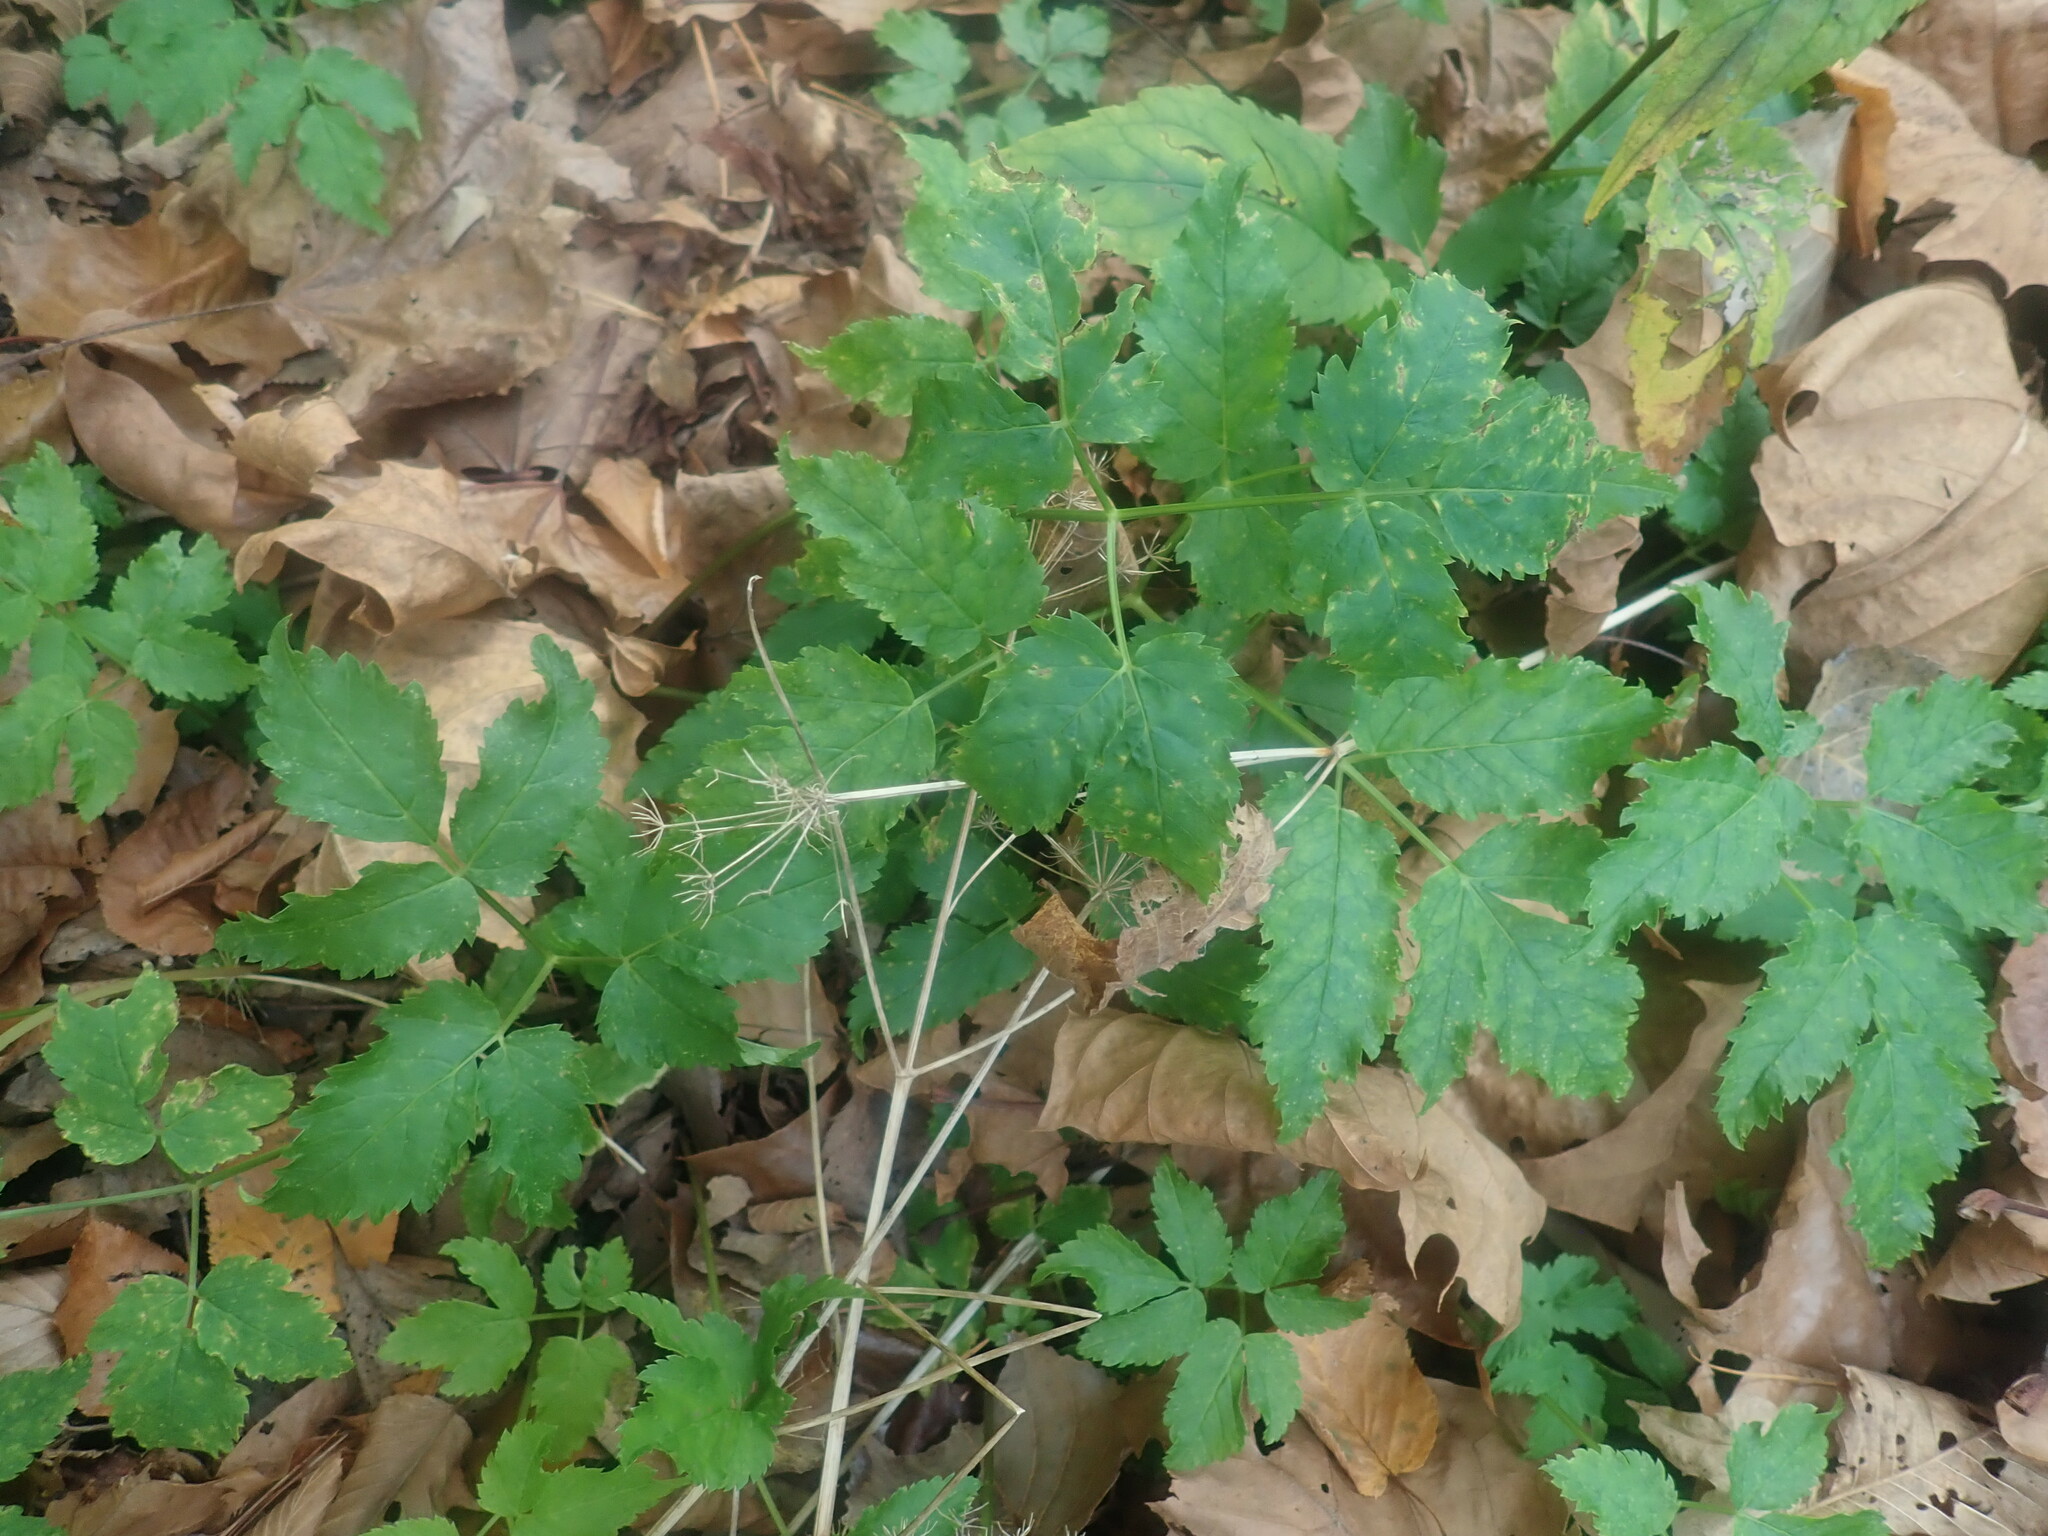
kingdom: Plantae
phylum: Tracheophyta
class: Magnoliopsida
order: Apiales
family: Apiaceae
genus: Aegopodium
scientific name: Aegopodium podagraria
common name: Ground-elder
